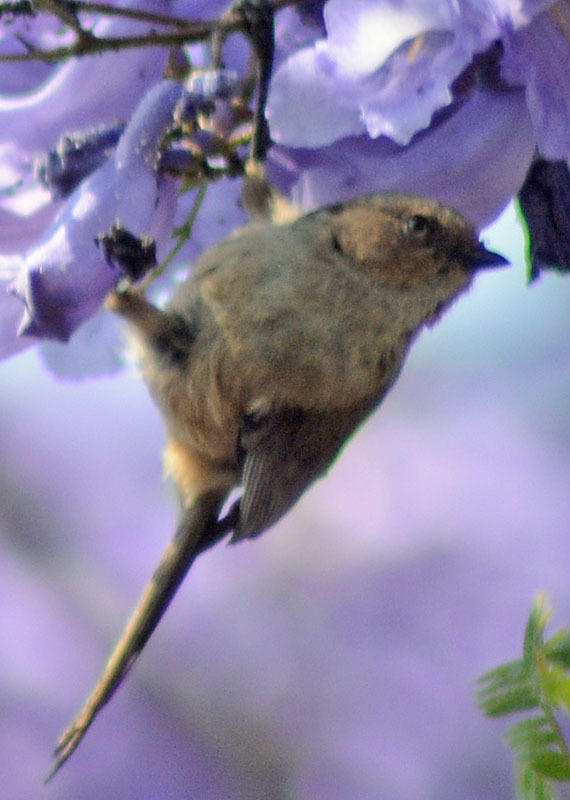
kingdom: Animalia
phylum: Chordata
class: Aves
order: Passeriformes
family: Aegithalidae
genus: Psaltriparus
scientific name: Psaltriparus minimus
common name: American bushtit
